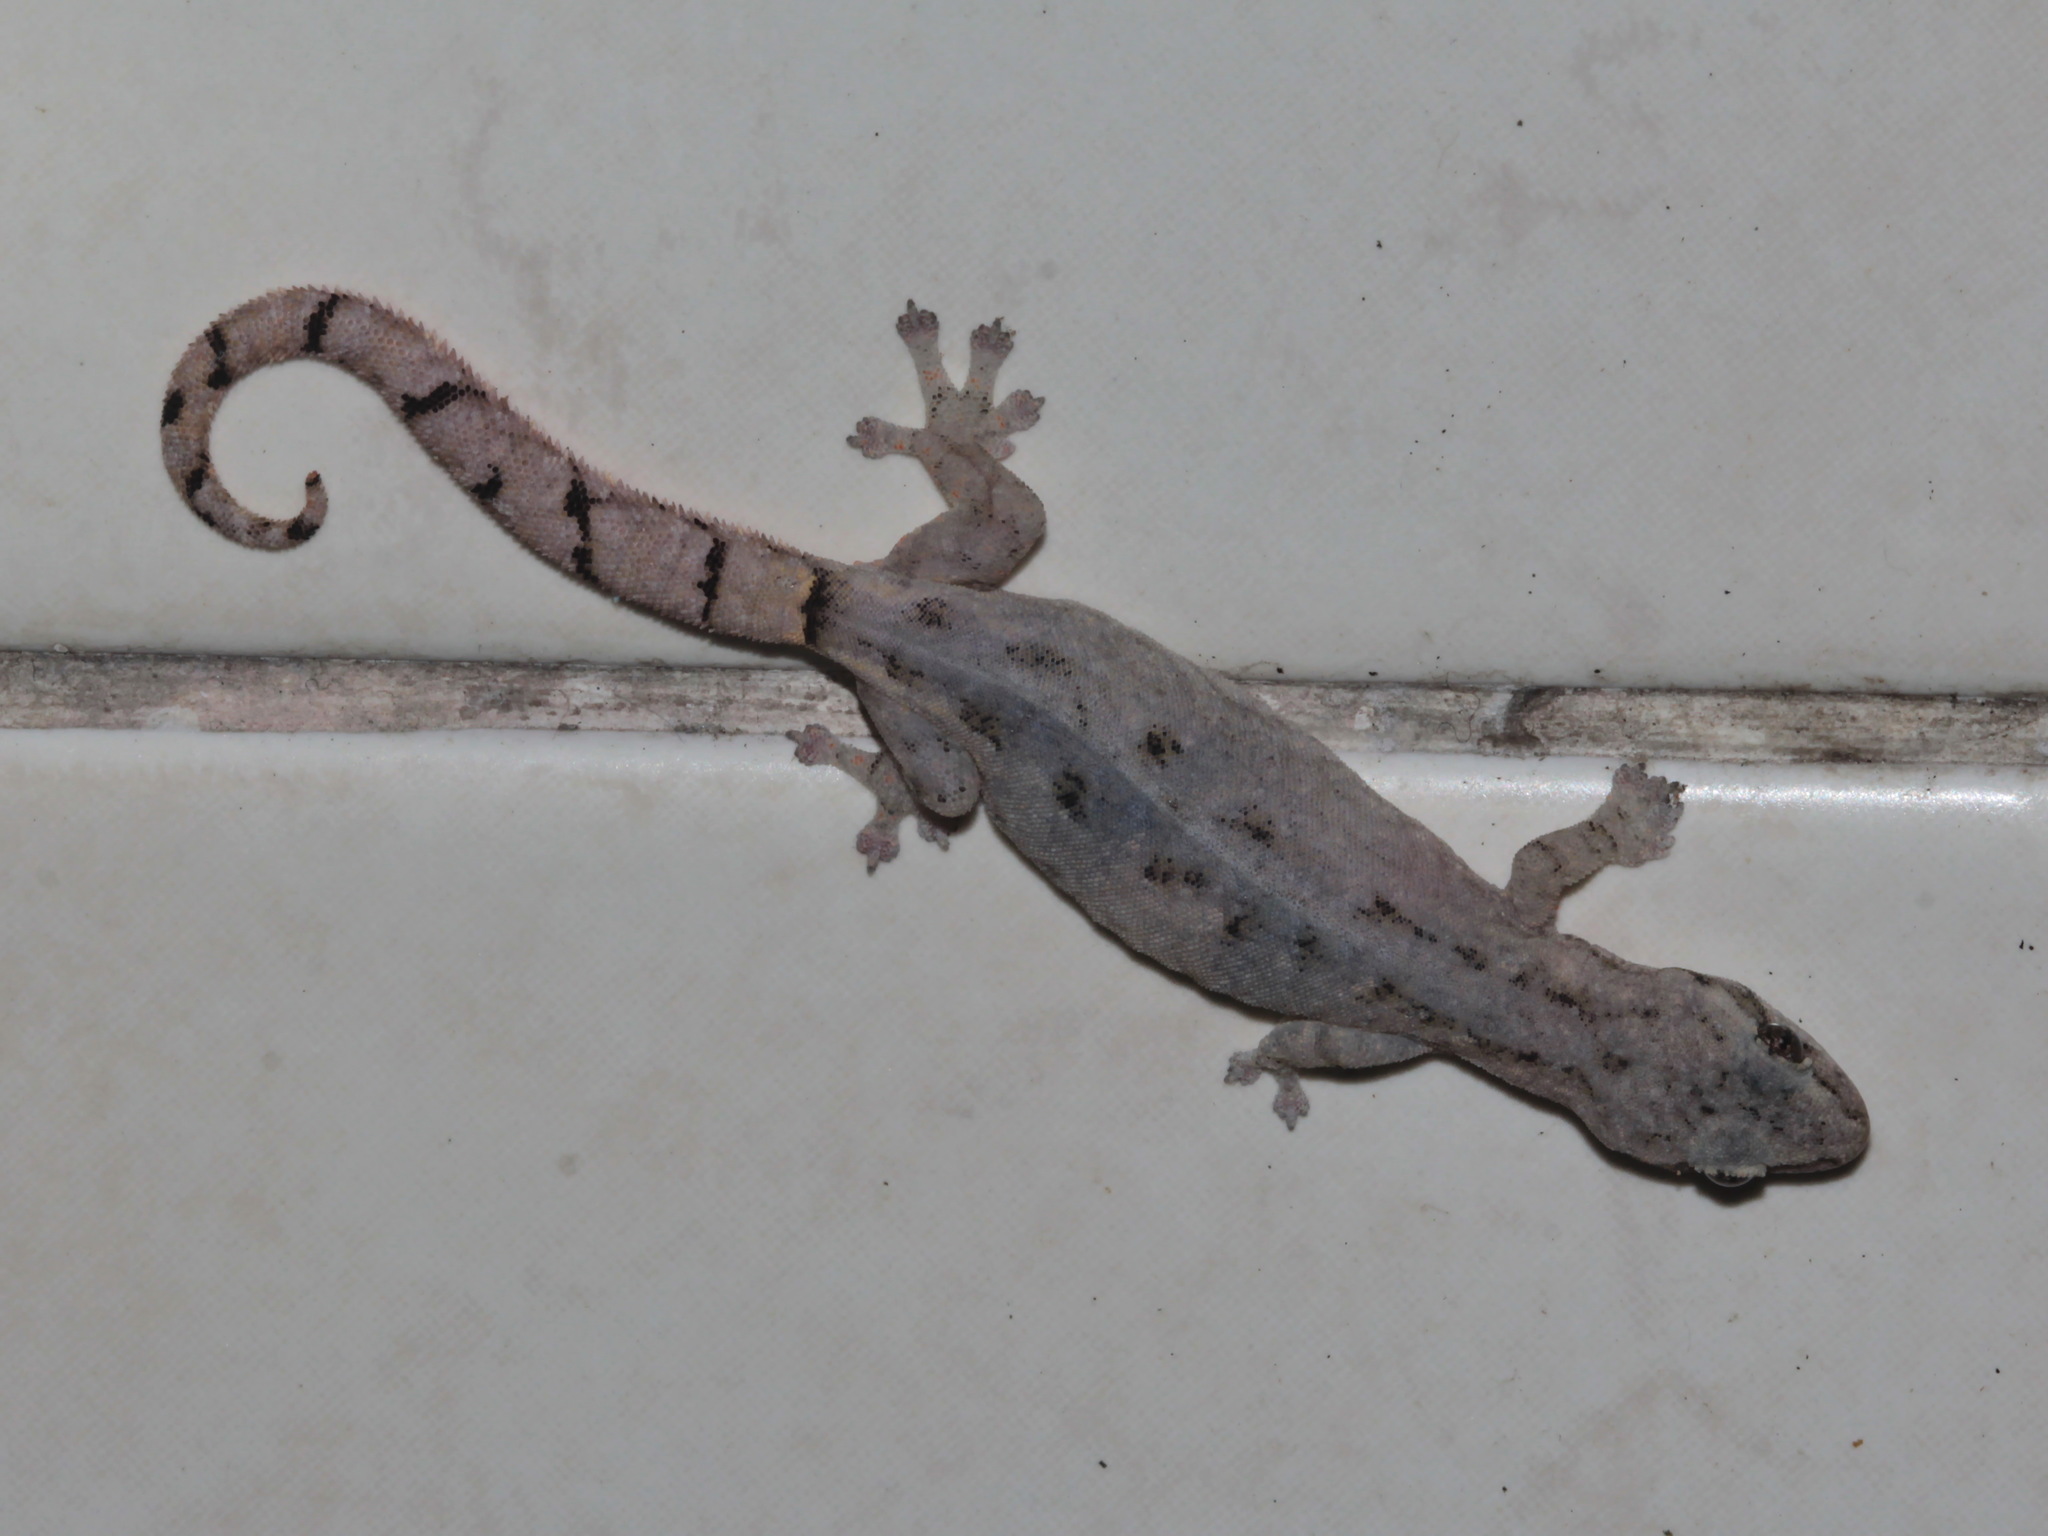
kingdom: Animalia
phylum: Chordata
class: Squamata
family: Gekkonidae
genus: Hemiphyllodactylus
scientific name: Hemiphyllodactylus chiangmaiensis
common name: Chiang mai dwarf gecko
